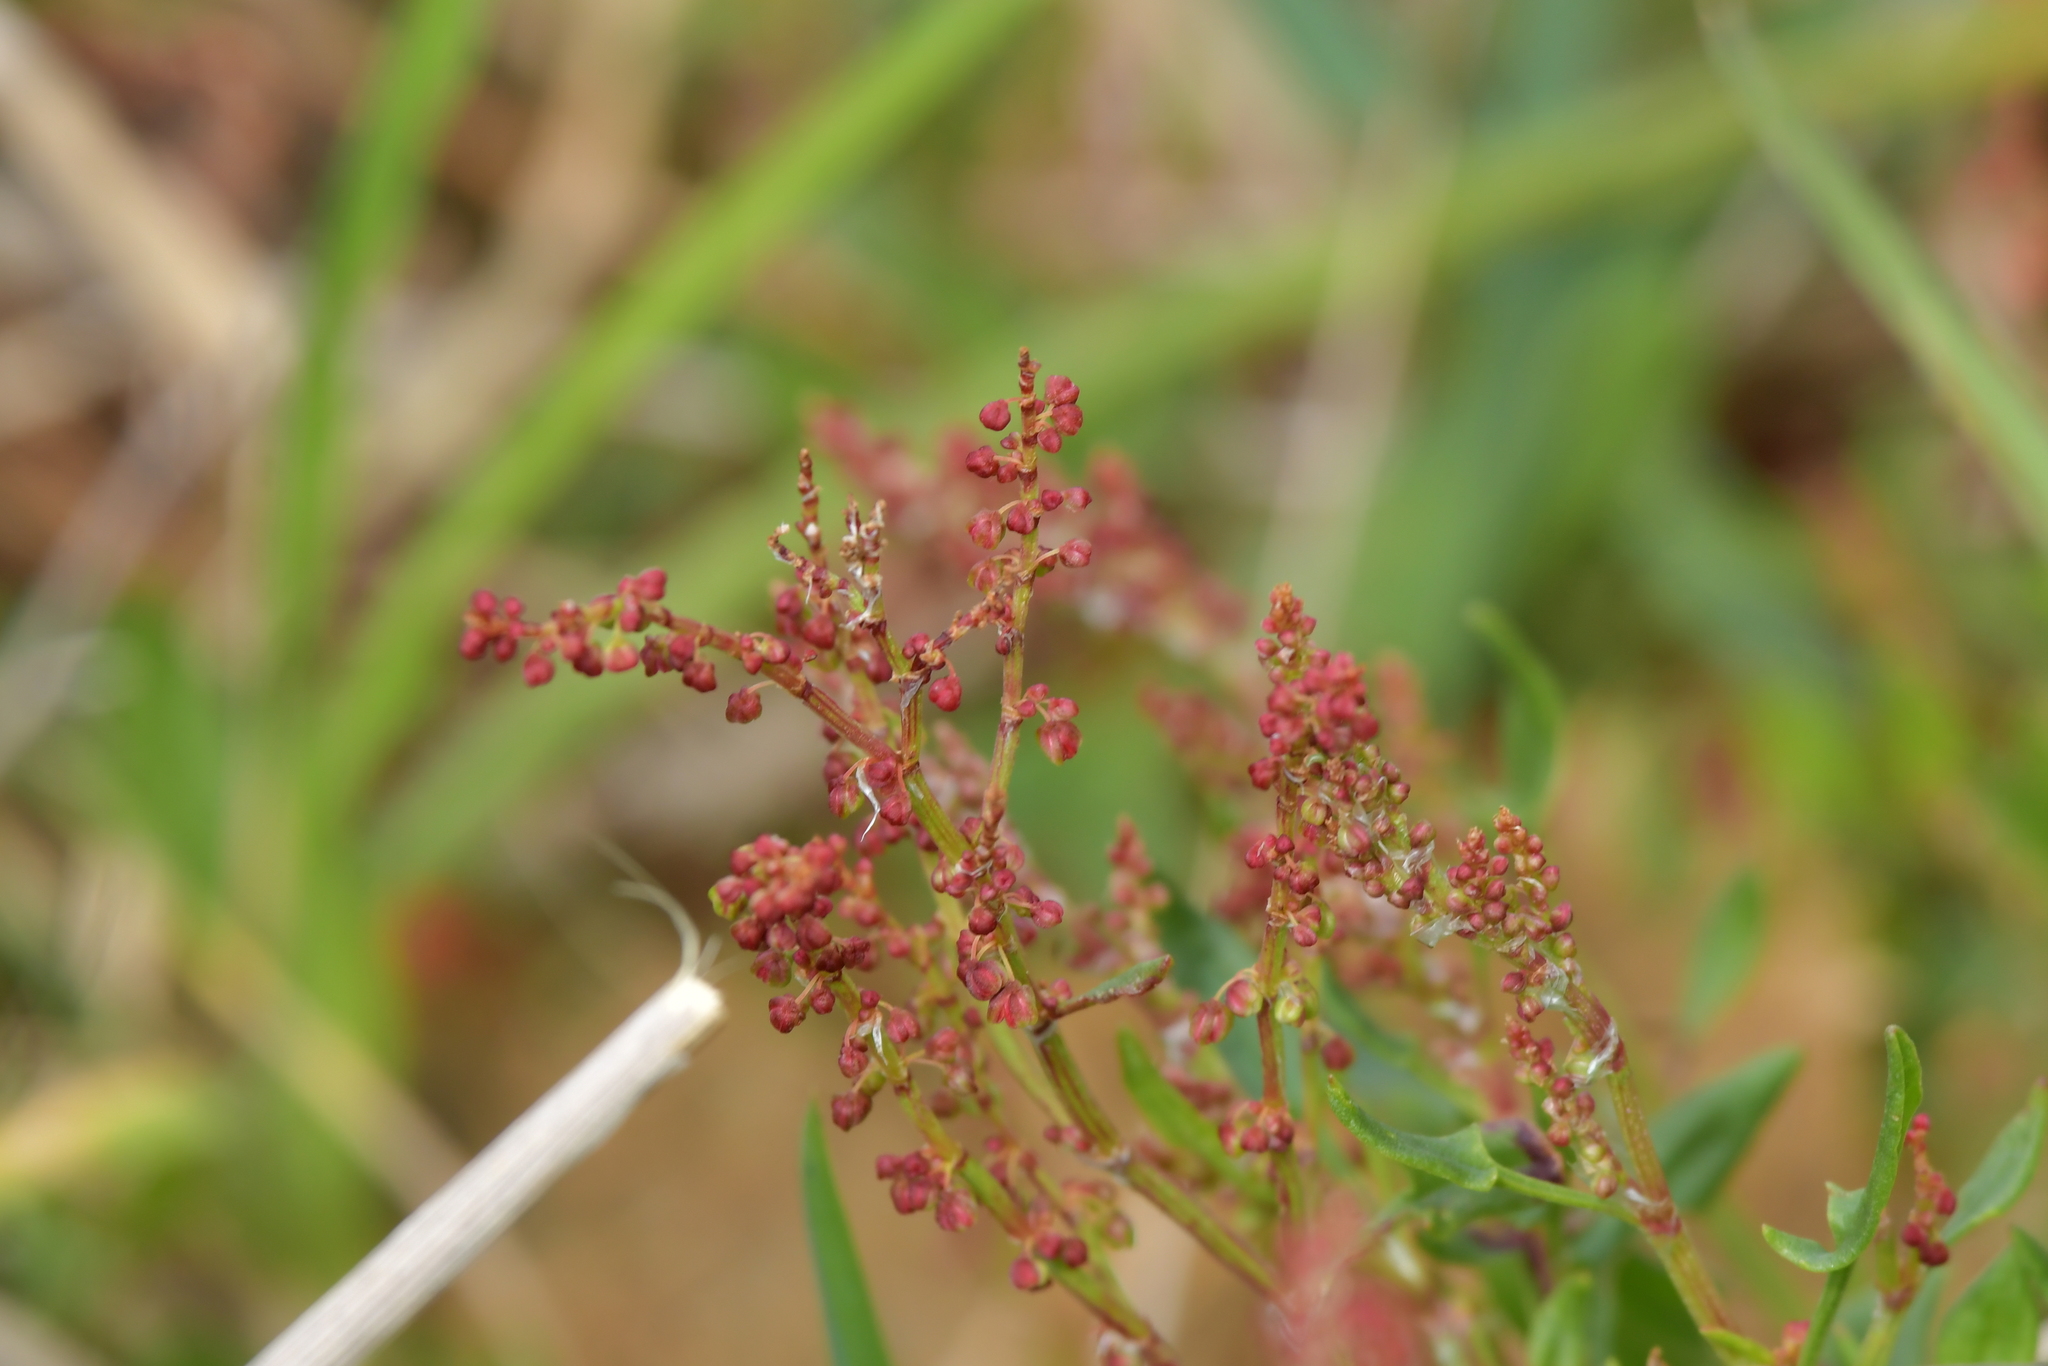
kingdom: Plantae
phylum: Tracheophyta
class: Magnoliopsida
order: Caryophyllales
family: Polygonaceae
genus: Rumex
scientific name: Rumex acetosella
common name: Common sheep sorrel
